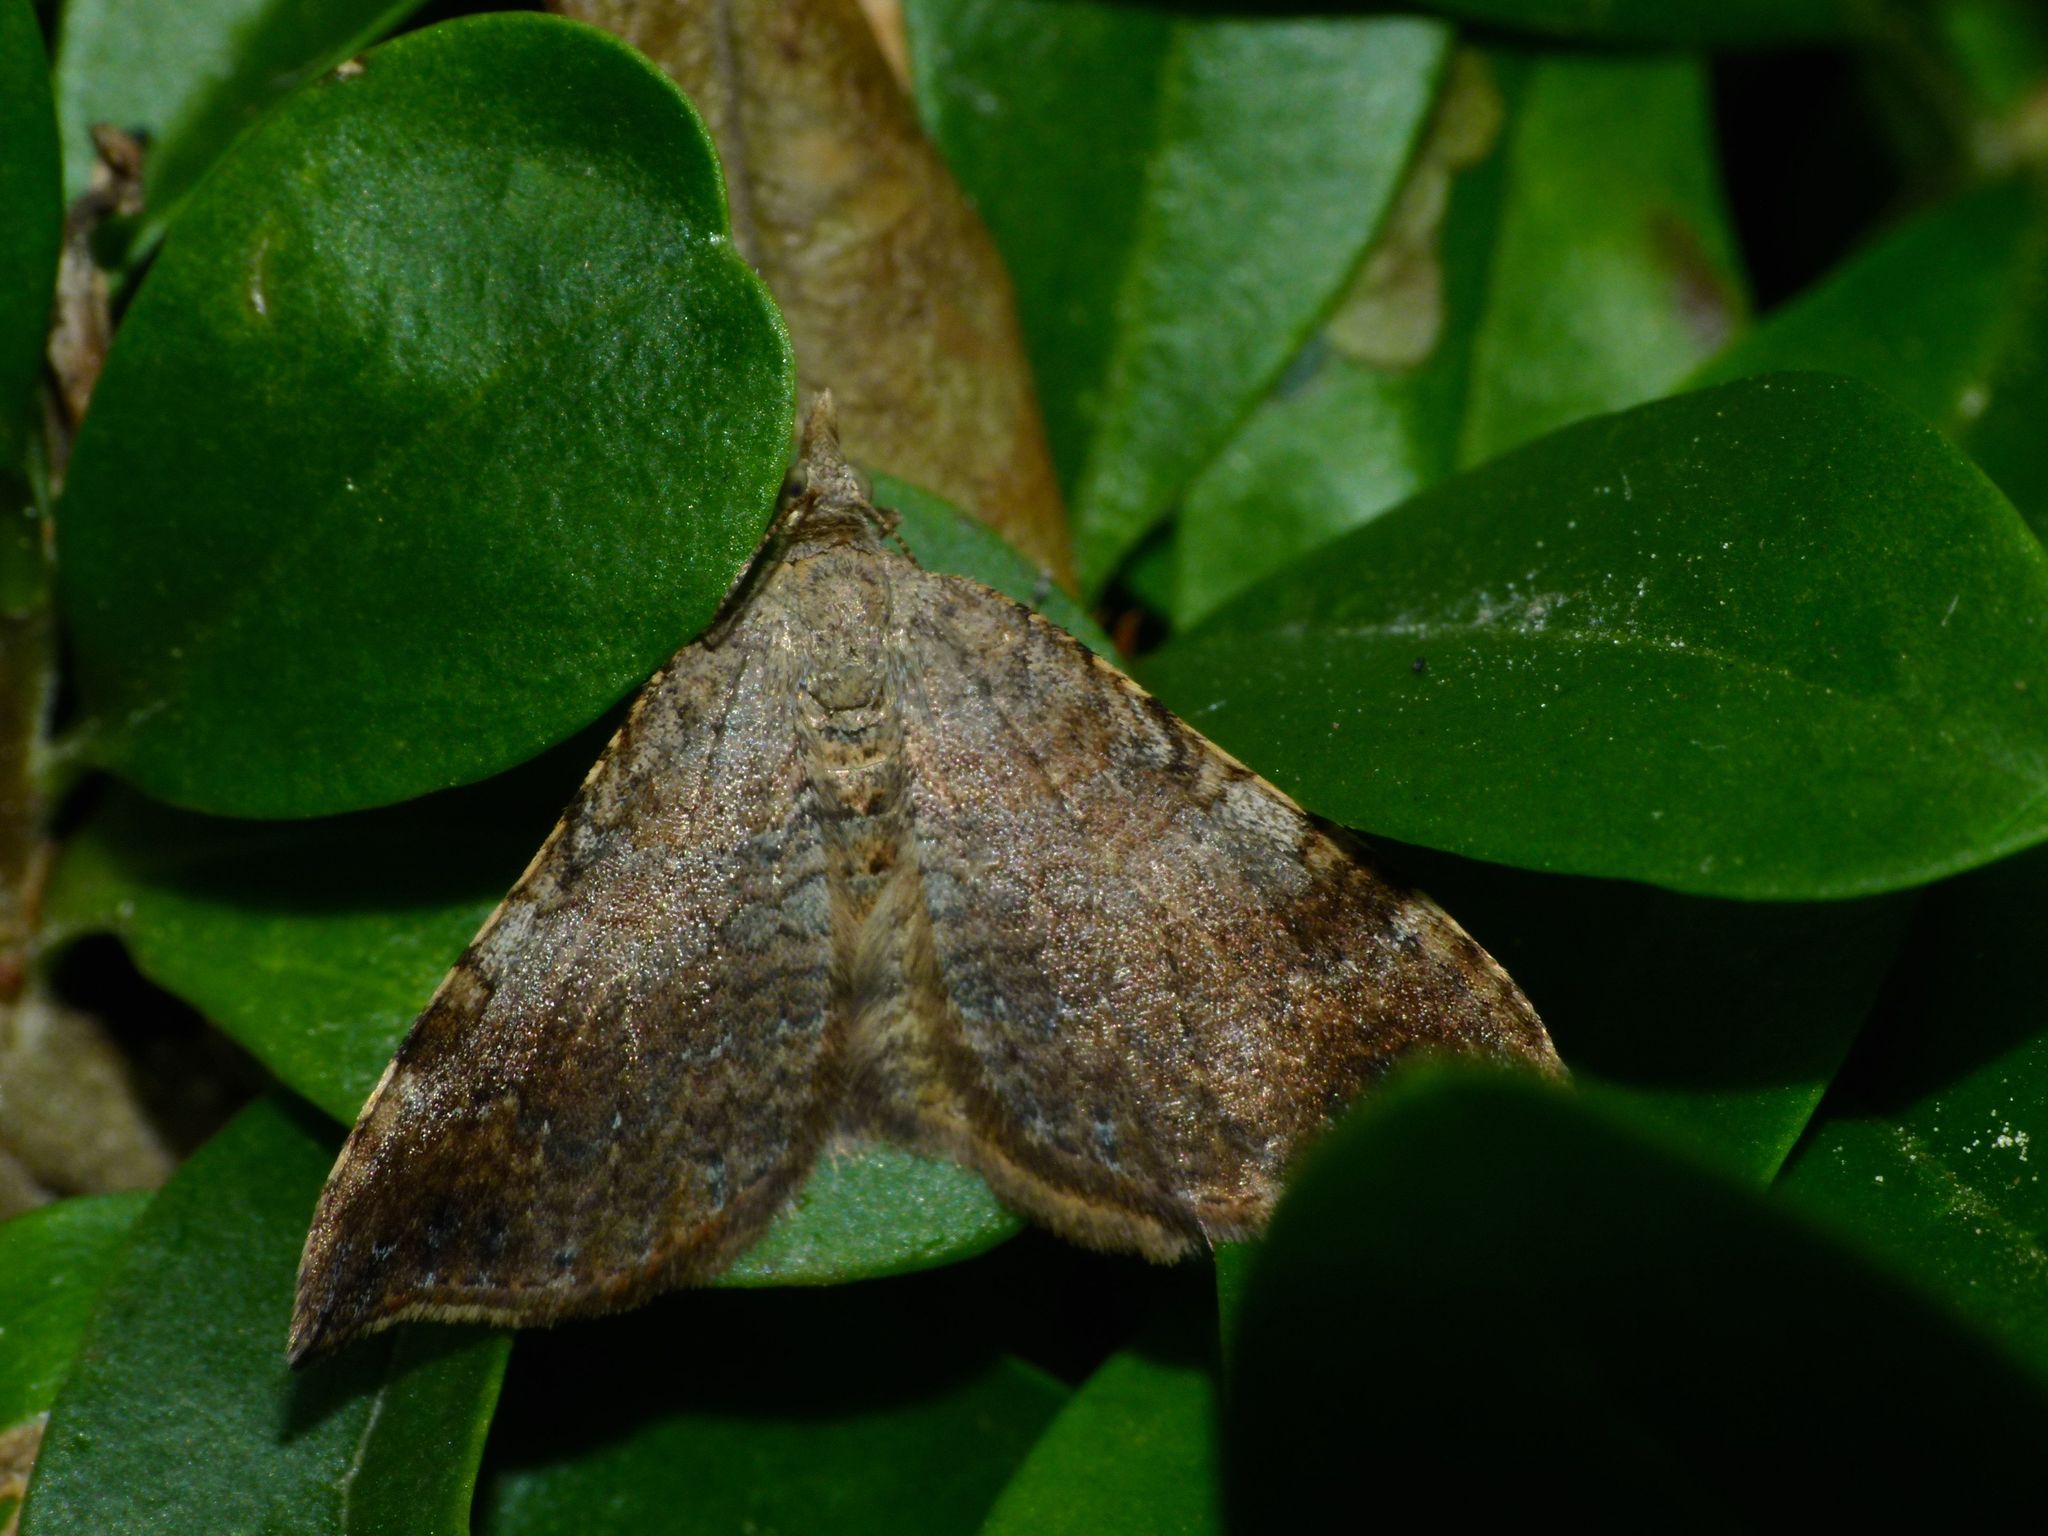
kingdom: Animalia
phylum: Arthropoda
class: Insecta
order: Lepidoptera
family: Geometridae
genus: Homodotis
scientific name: Homodotis megaspilata
